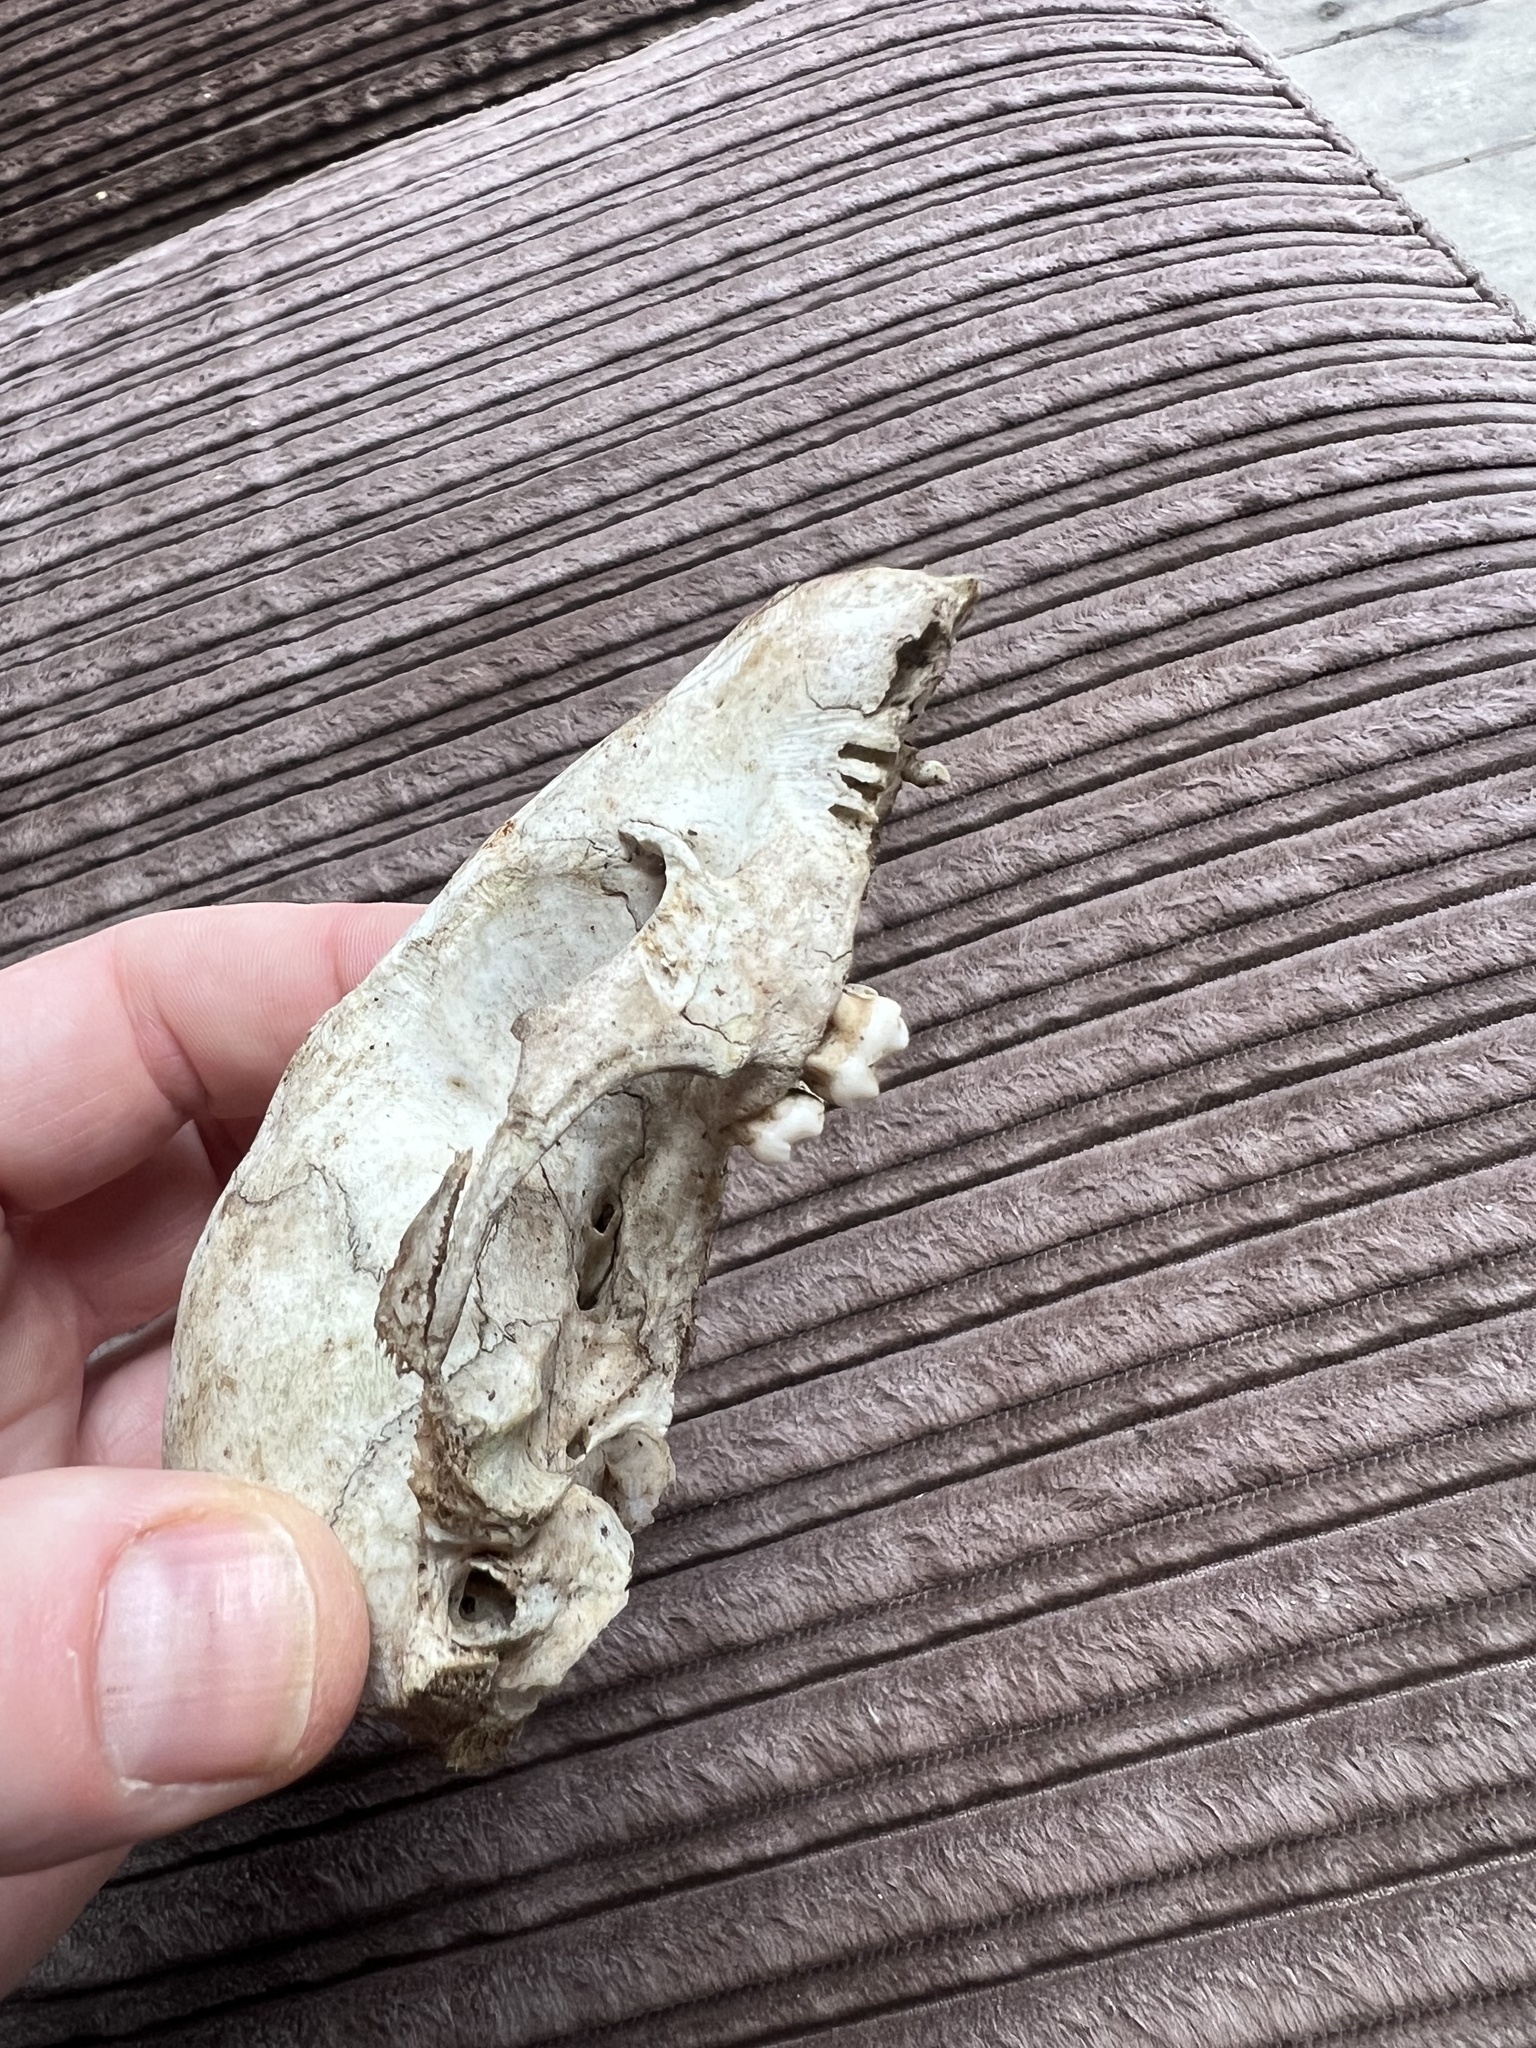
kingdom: Animalia
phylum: Chordata
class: Mammalia
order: Carnivora
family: Procyonidae
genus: Procyon
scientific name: Procyon lotor
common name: Raccoon
